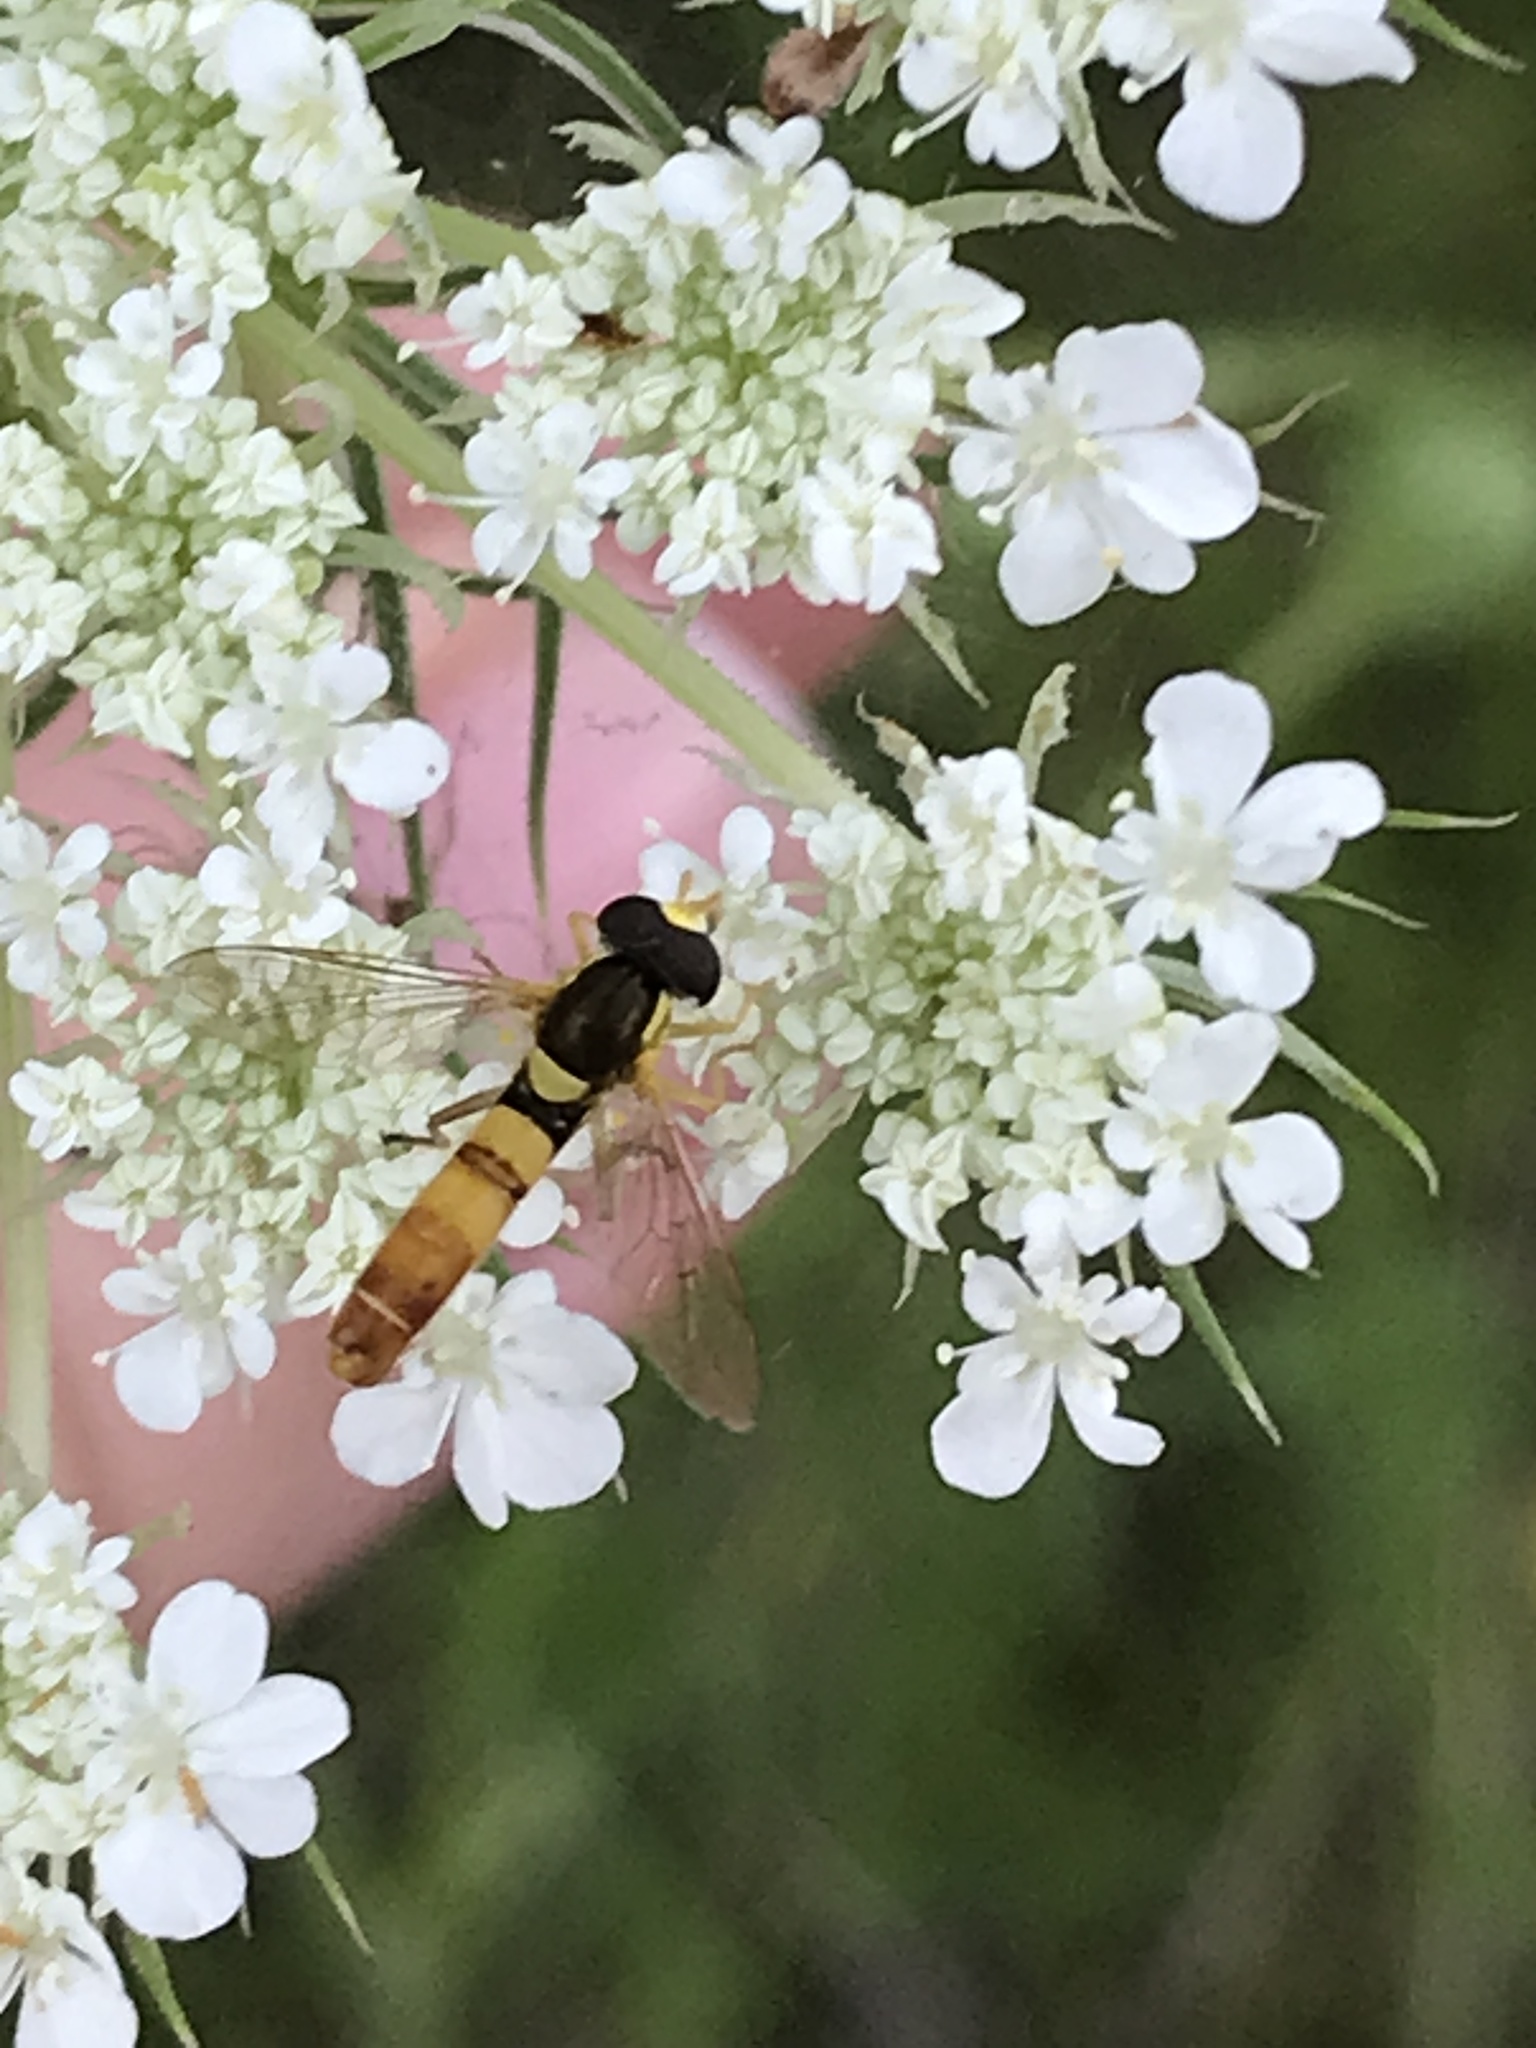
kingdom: Animalia
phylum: Arthropoda
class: Insecta
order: Diptera
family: Syrphidae
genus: Sphaerophoria
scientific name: Sphaerophoria contigua
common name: Tufted globetail
